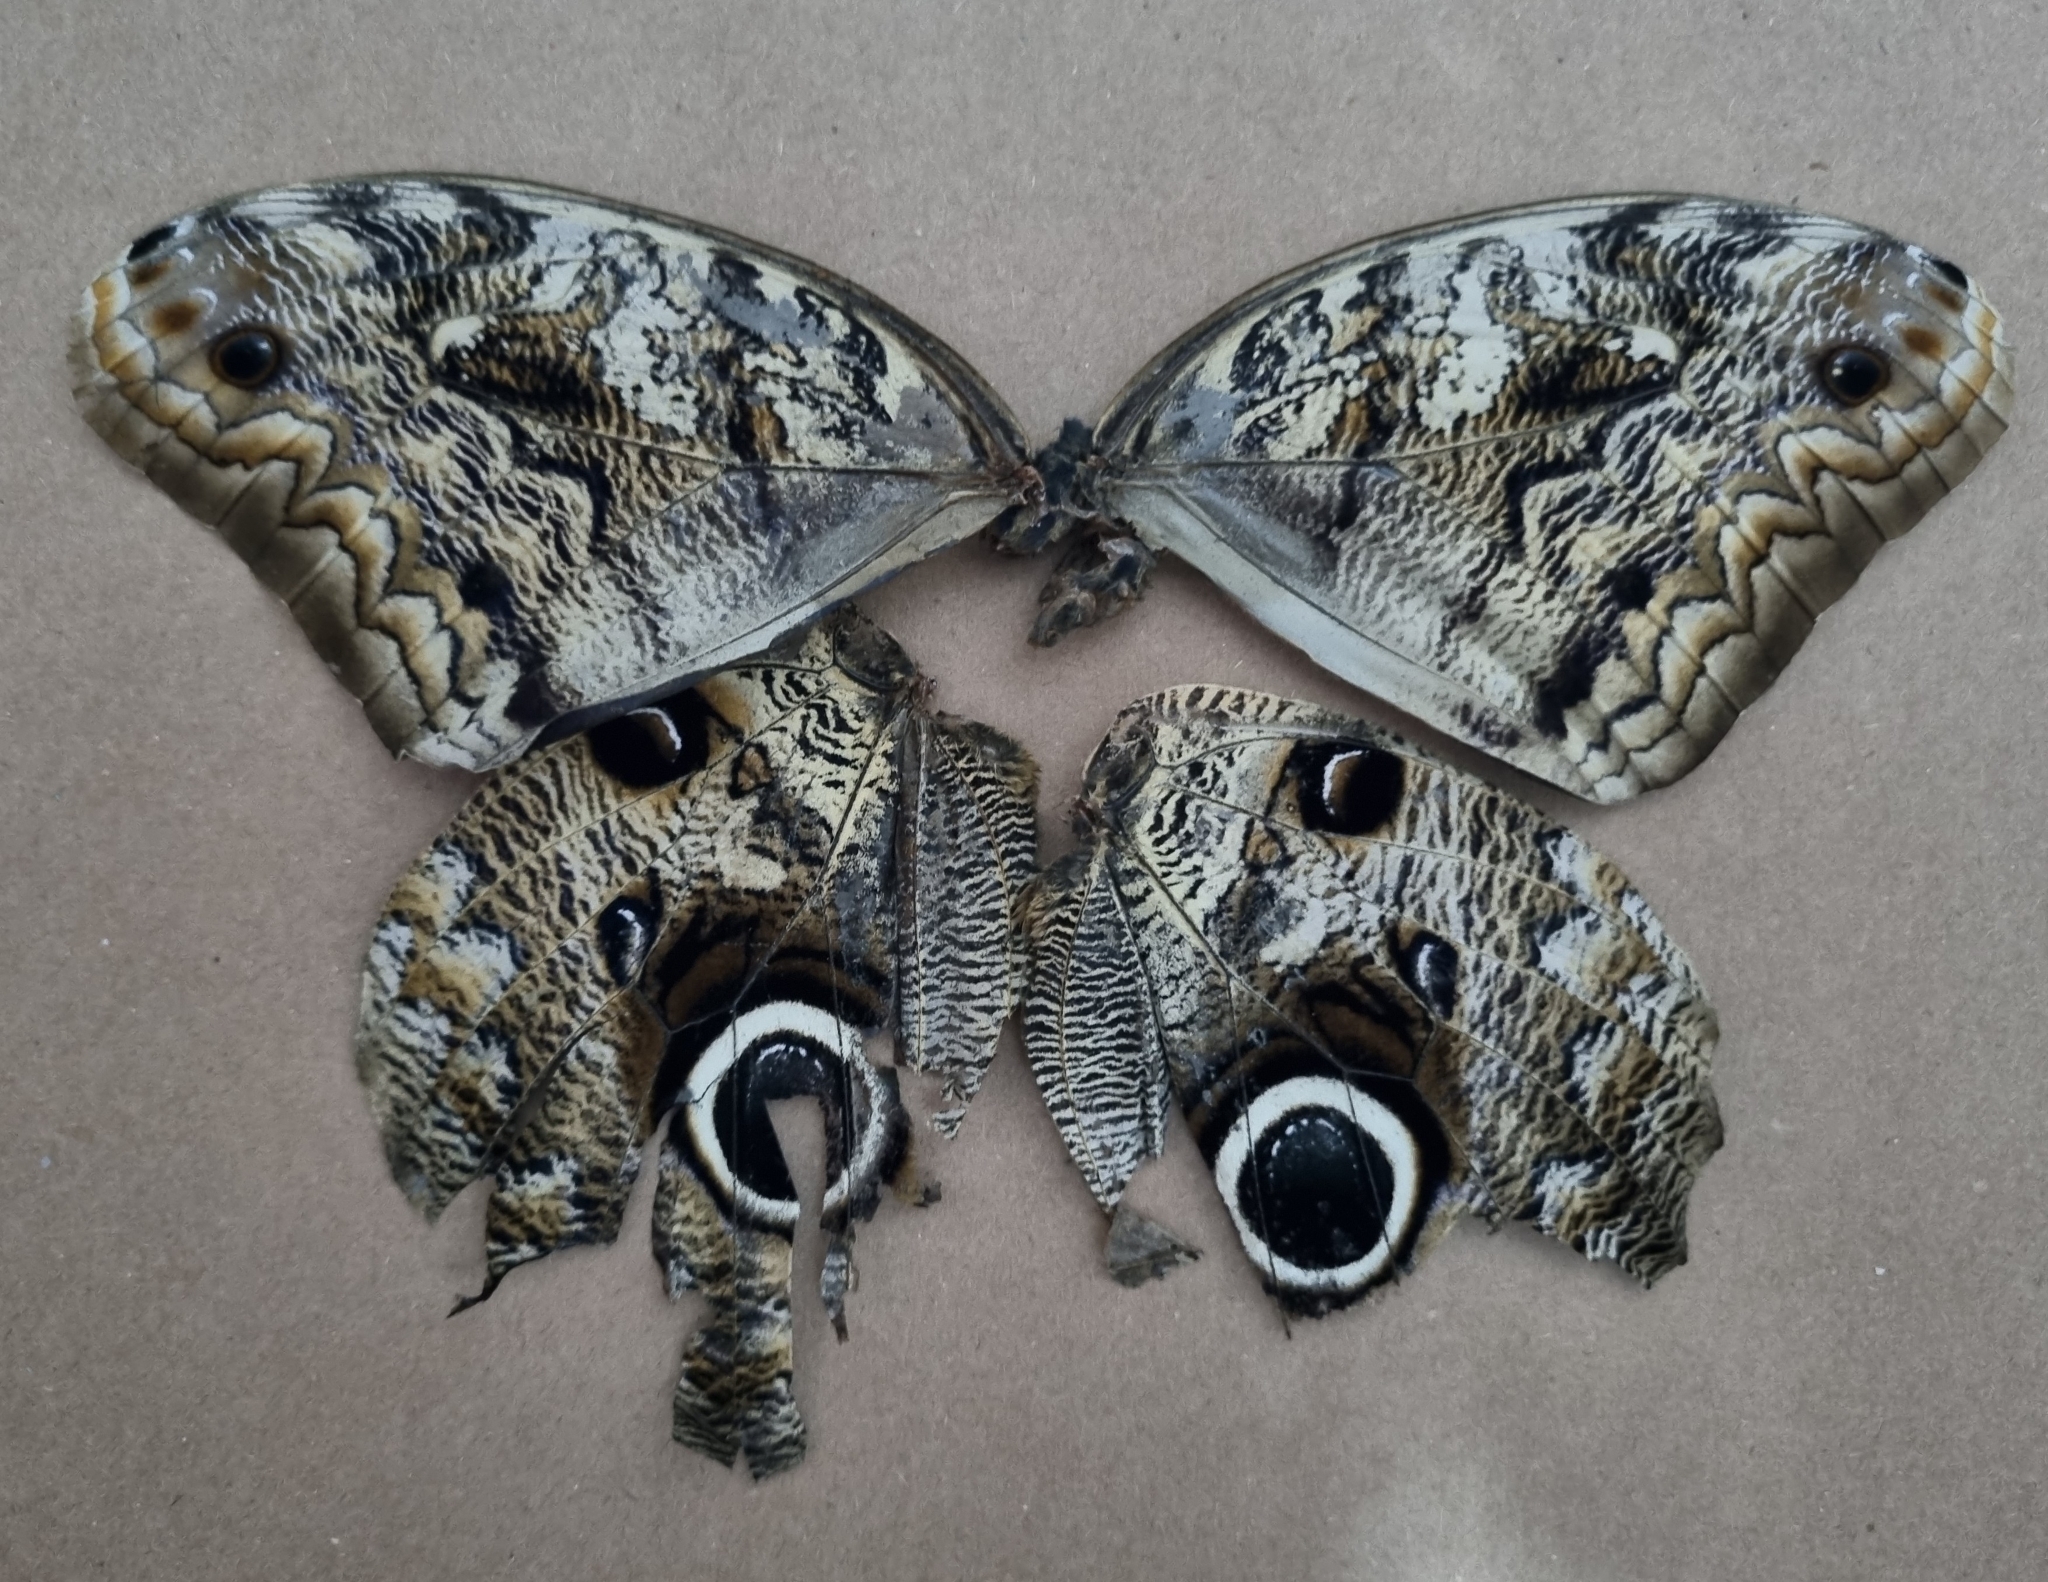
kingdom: Animalia
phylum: Arthropoda
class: Insecta
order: Lepidoptera
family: Nymphalidae
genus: Caligo
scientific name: Caligo brasiliensis
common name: Dark owl-butterfly
